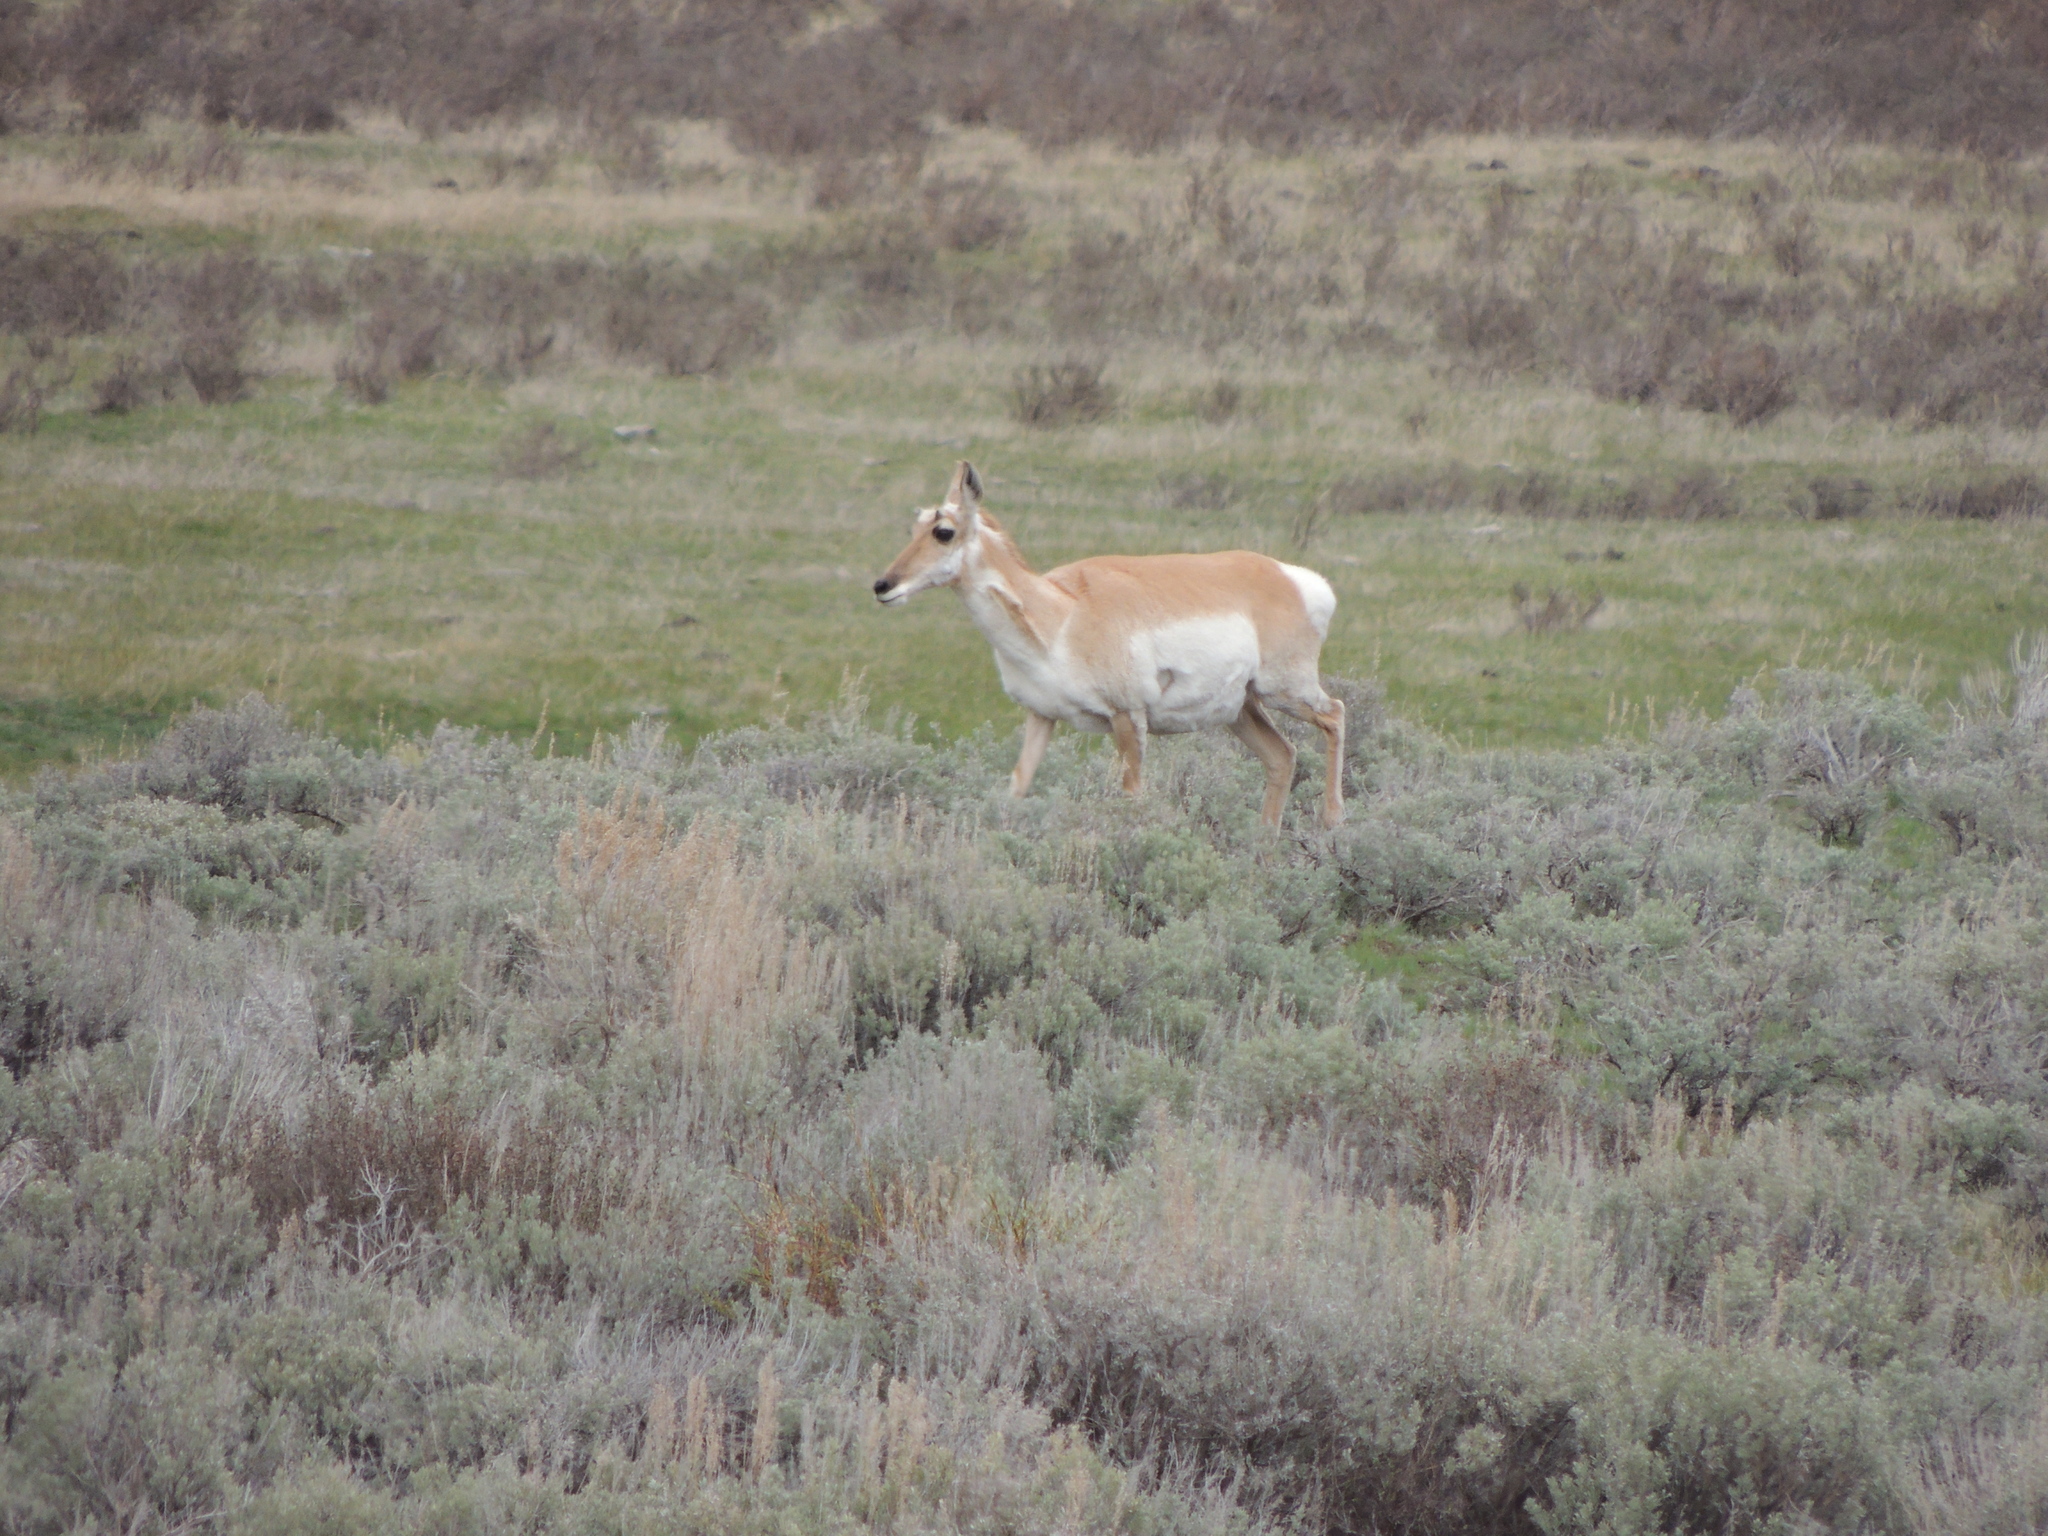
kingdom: Animalia
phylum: Chordata
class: Mammalia
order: Artiodactyla
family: Antilocapridae
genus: Antilocapra
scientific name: Antilocapra americana
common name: Pronghorn
